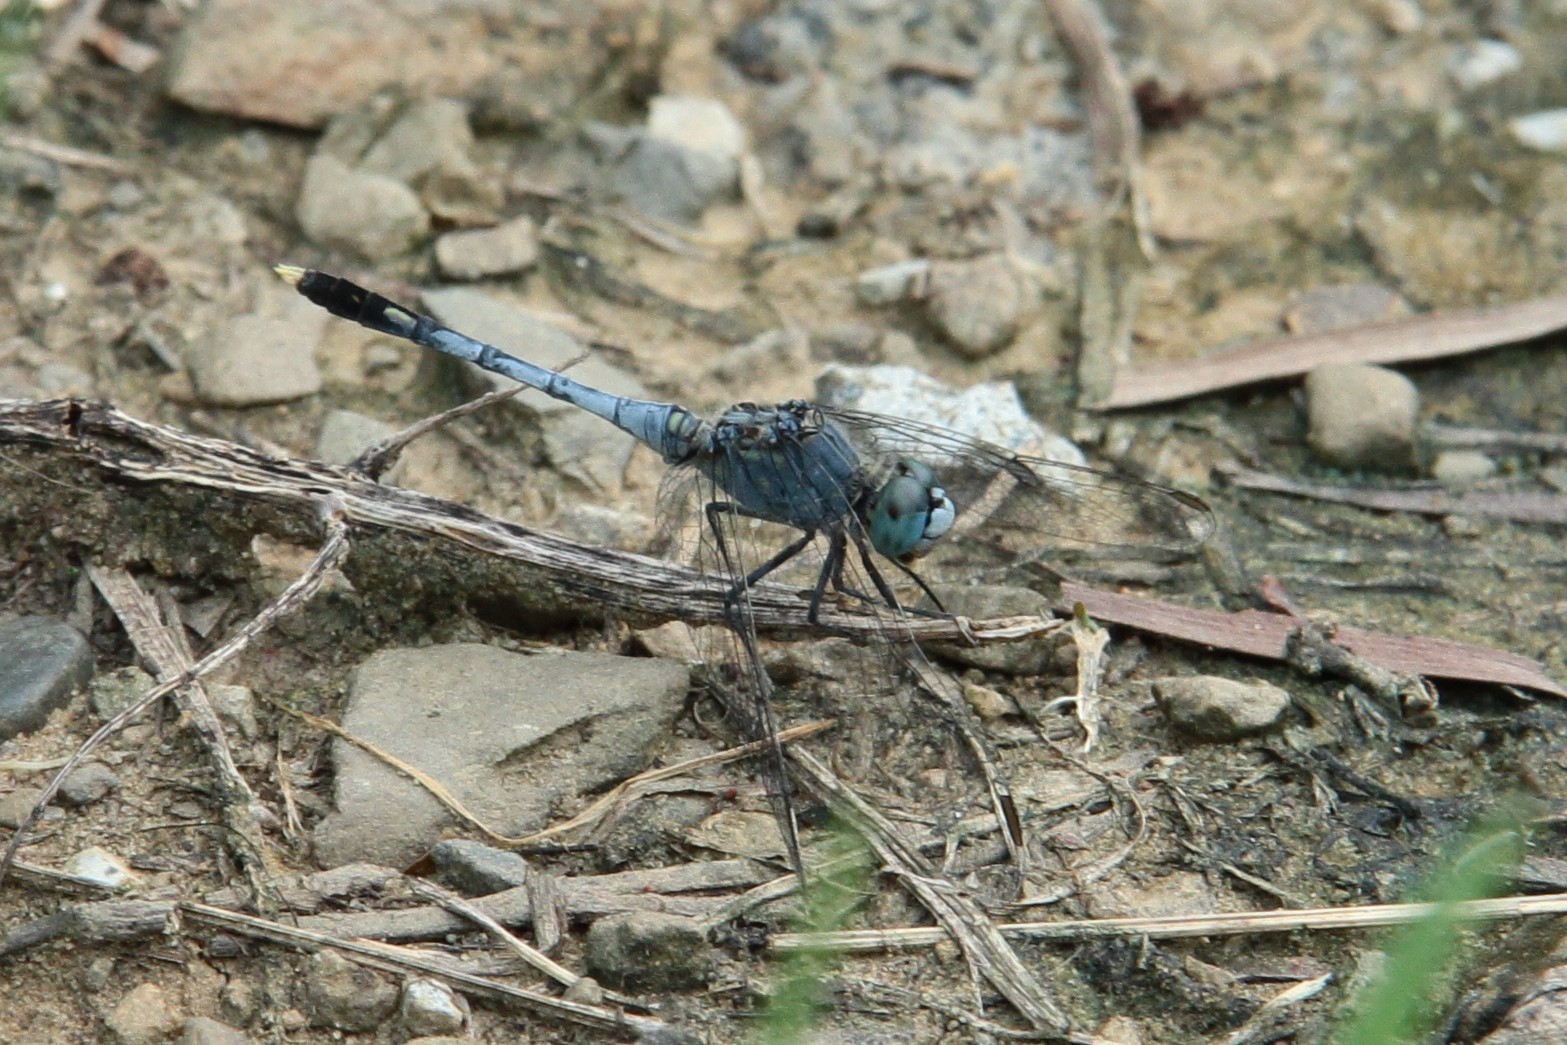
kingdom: Animalia
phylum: Arthropoda
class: Insecta
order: Odonata
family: Libellulidae
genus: Diplacodes
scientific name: Diplacodes trivialis
